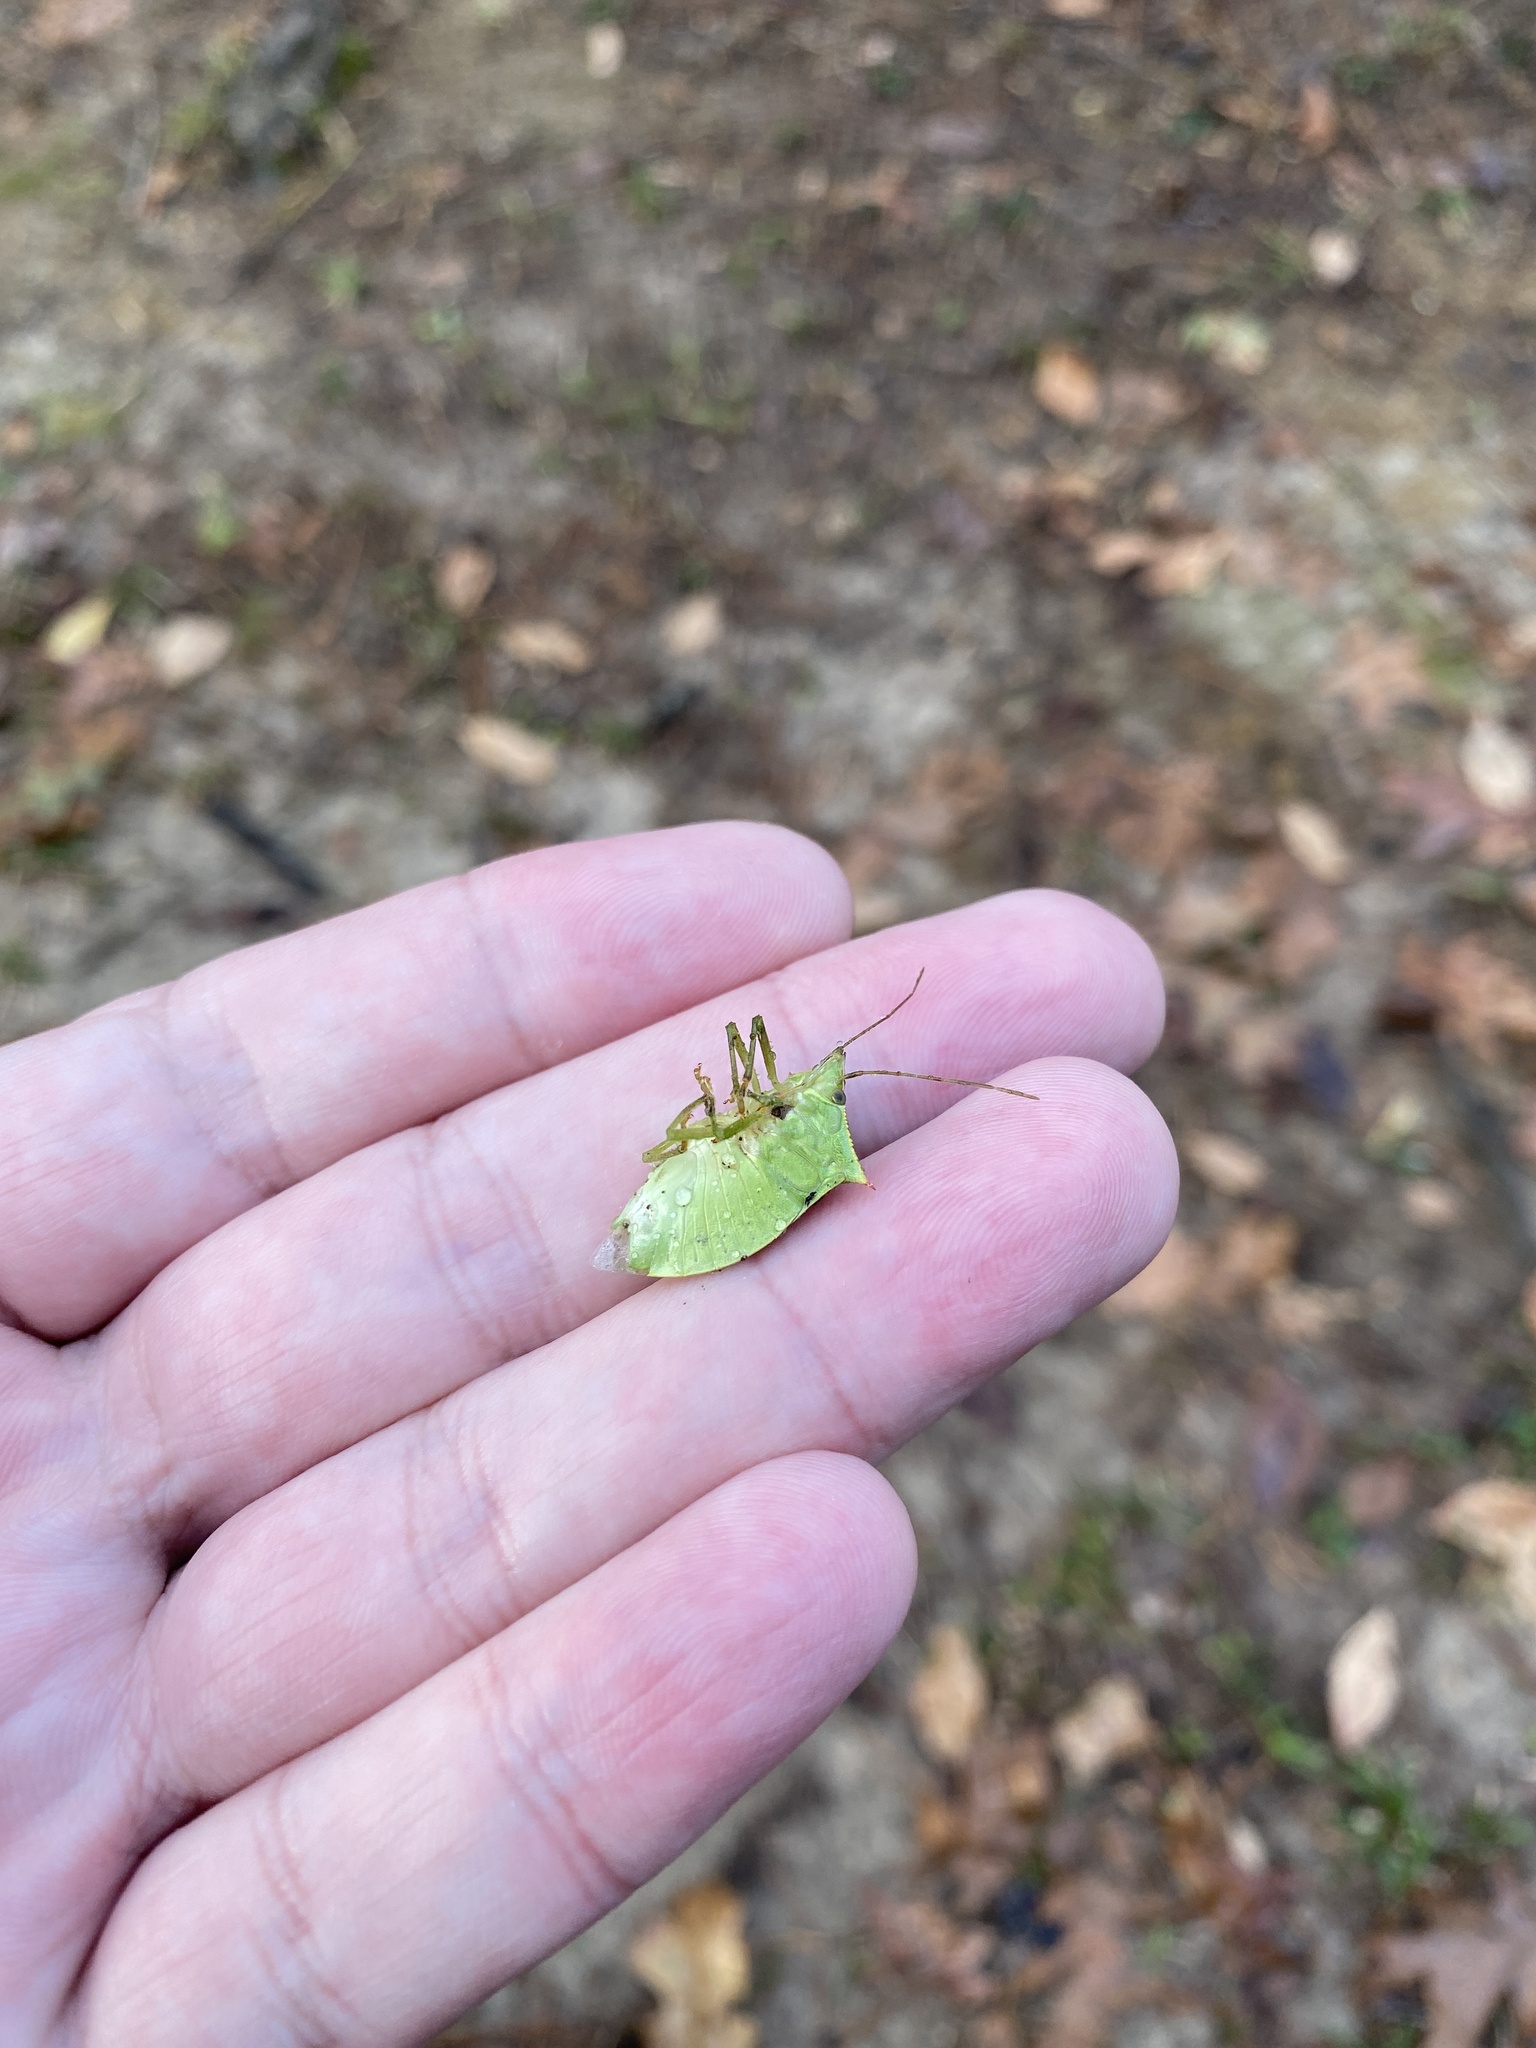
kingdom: Animalia
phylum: Arthropoda
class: Insecta
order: Hemiptera
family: Pentatomidae
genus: Loxa
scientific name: Loxa flavicollis
